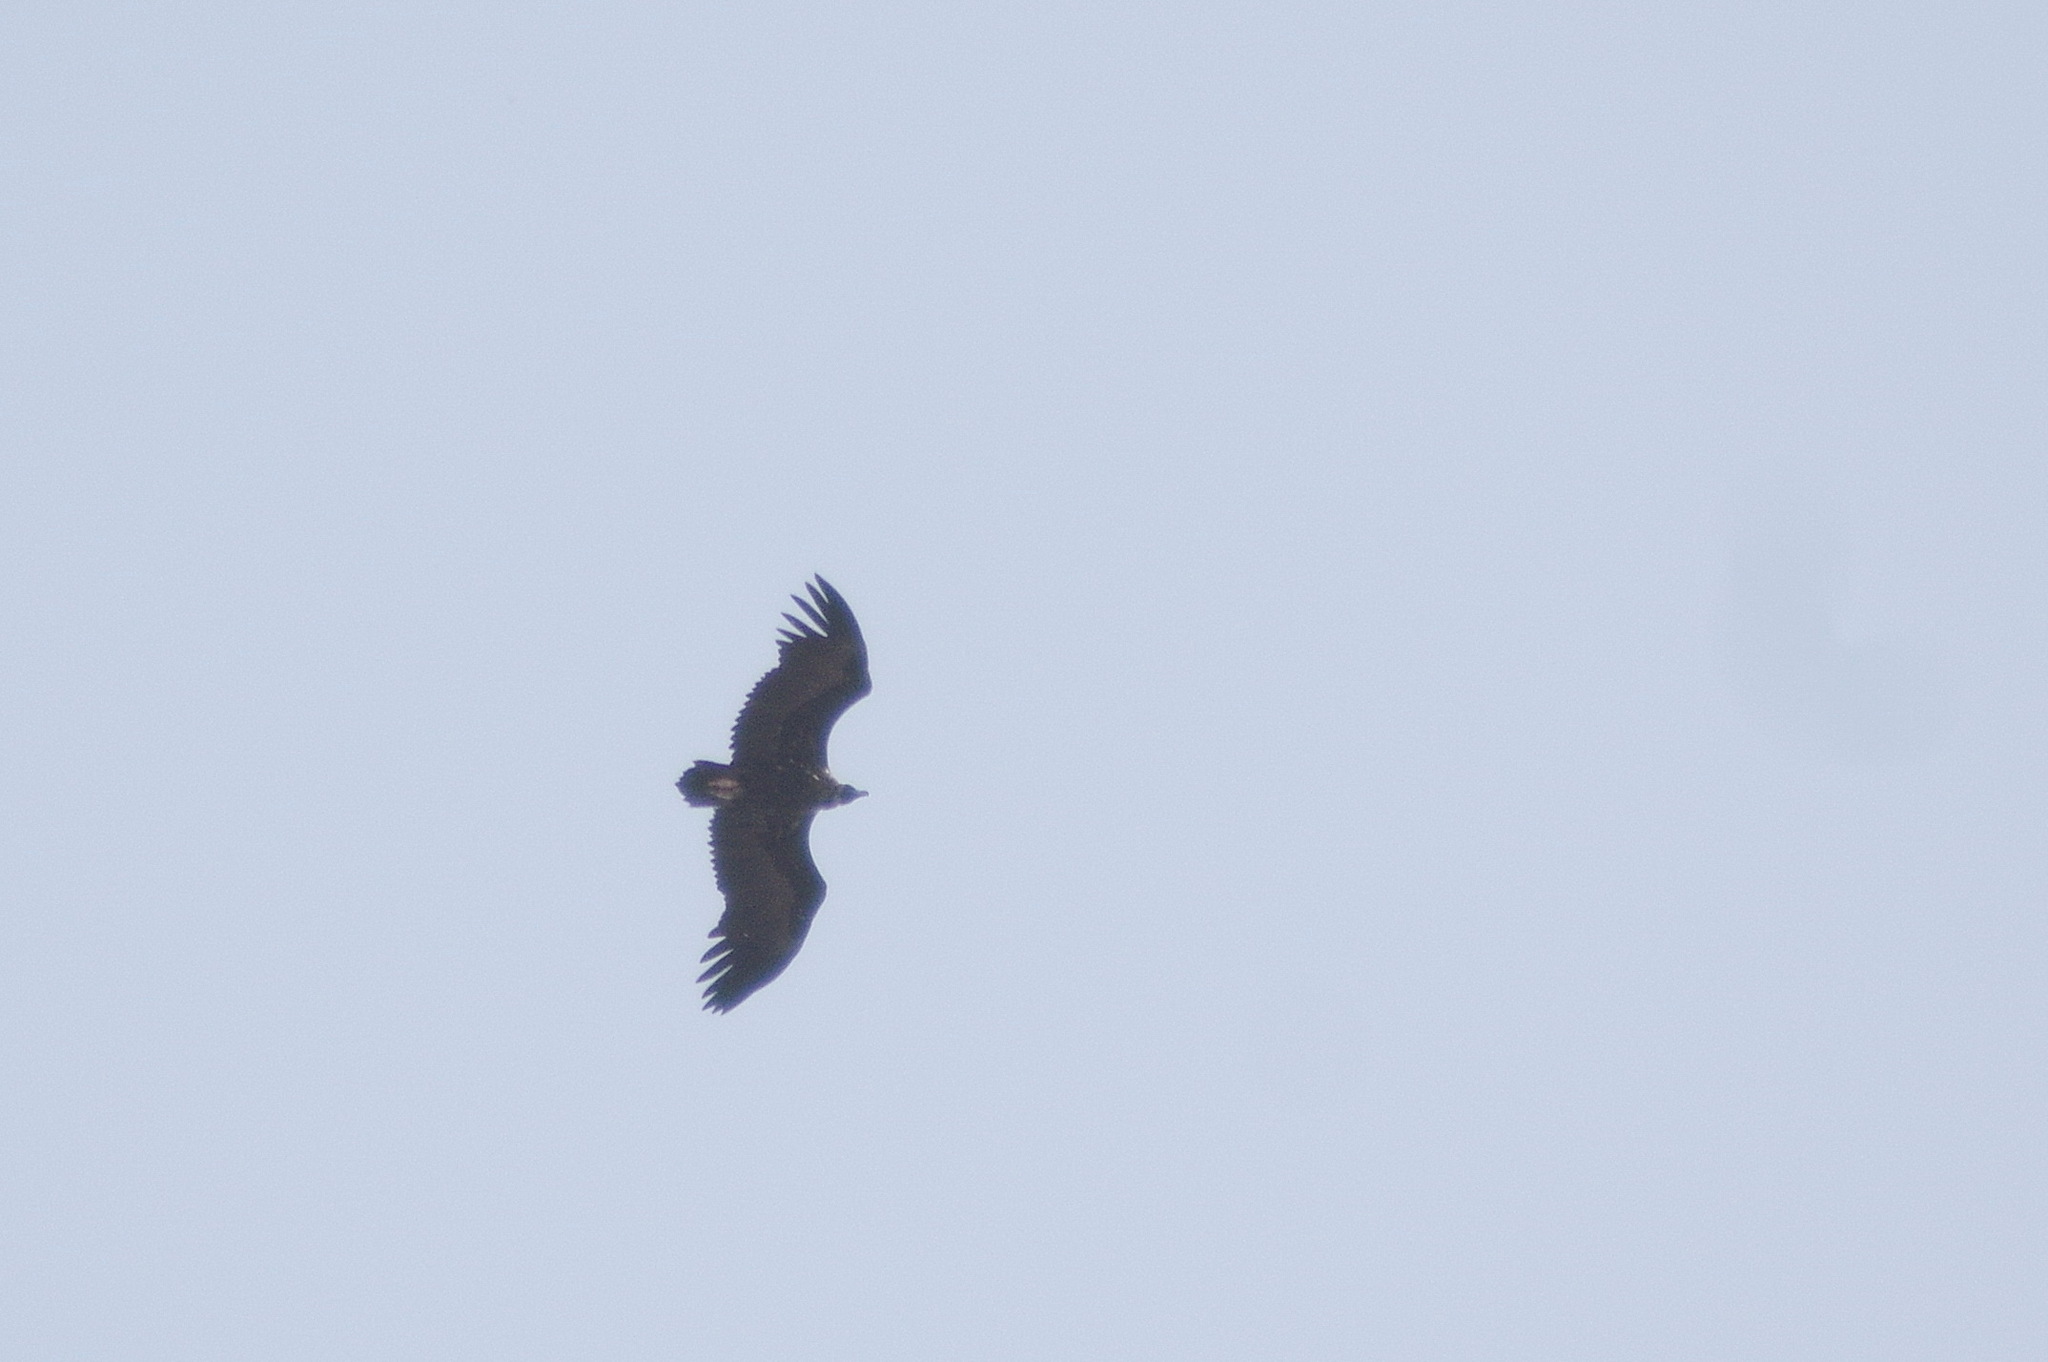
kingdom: Animalia
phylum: Chordata
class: Aves
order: Accipitriformes
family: Accipitridae
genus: Aegypius
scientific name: Aegypius monachus
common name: Cinereous vulture
